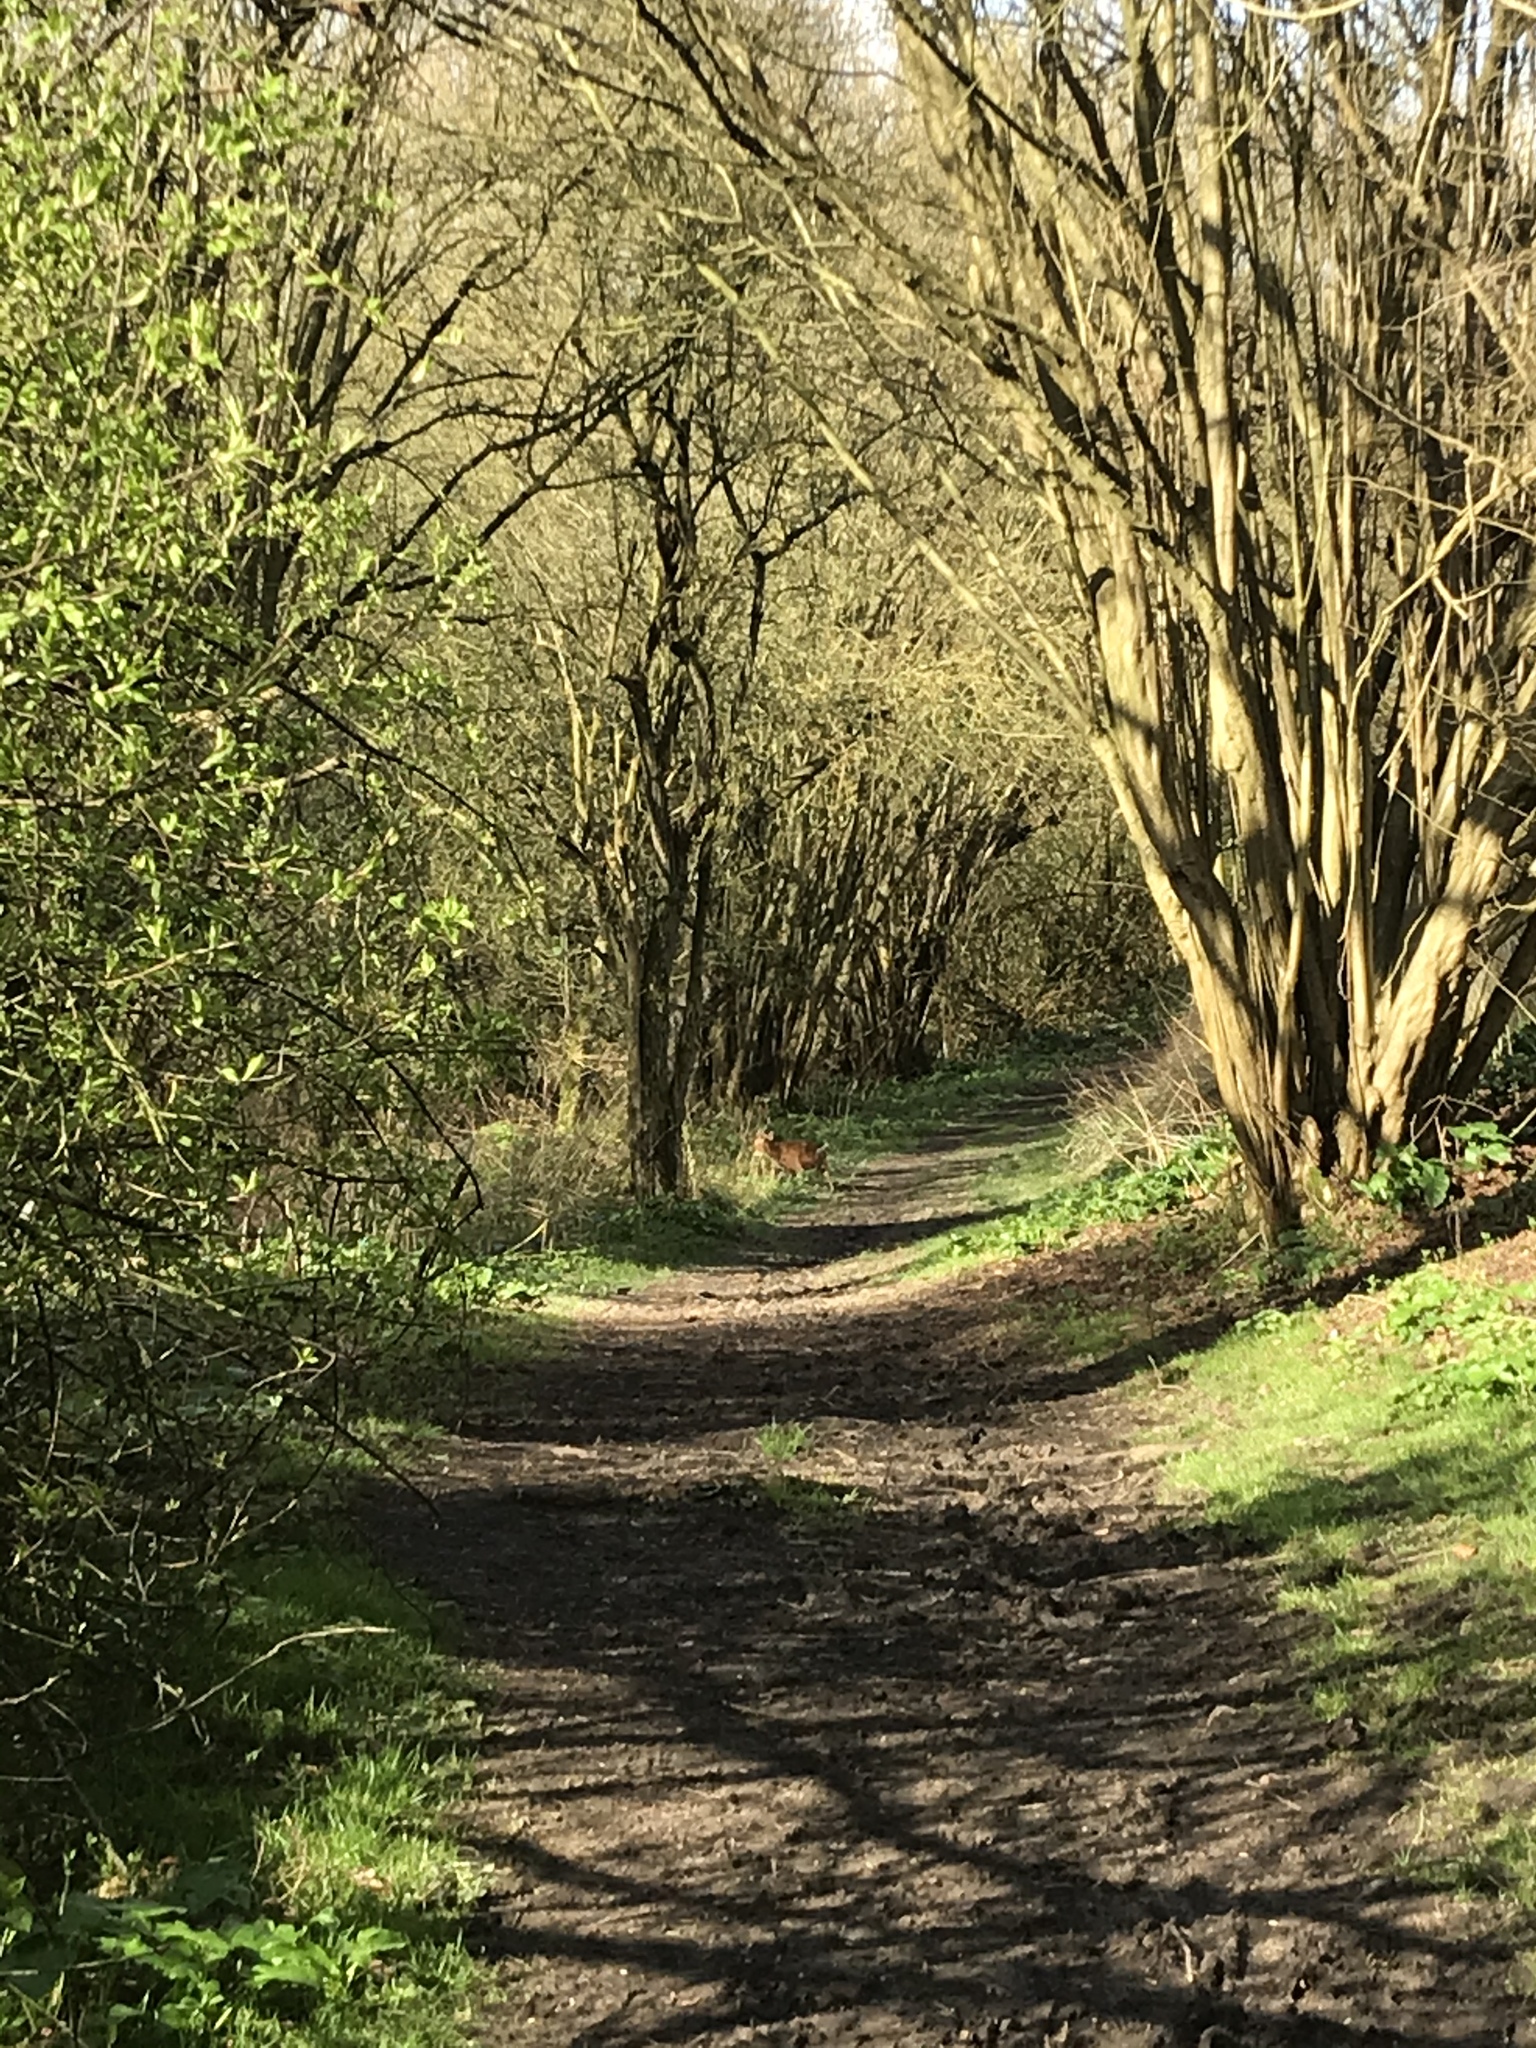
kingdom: Animalia
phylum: Chordata
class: Mammalia
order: Artiodactyla
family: Cervidae
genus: Muntiacus
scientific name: Muntiacus reevesi
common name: Reeves' muntjac
